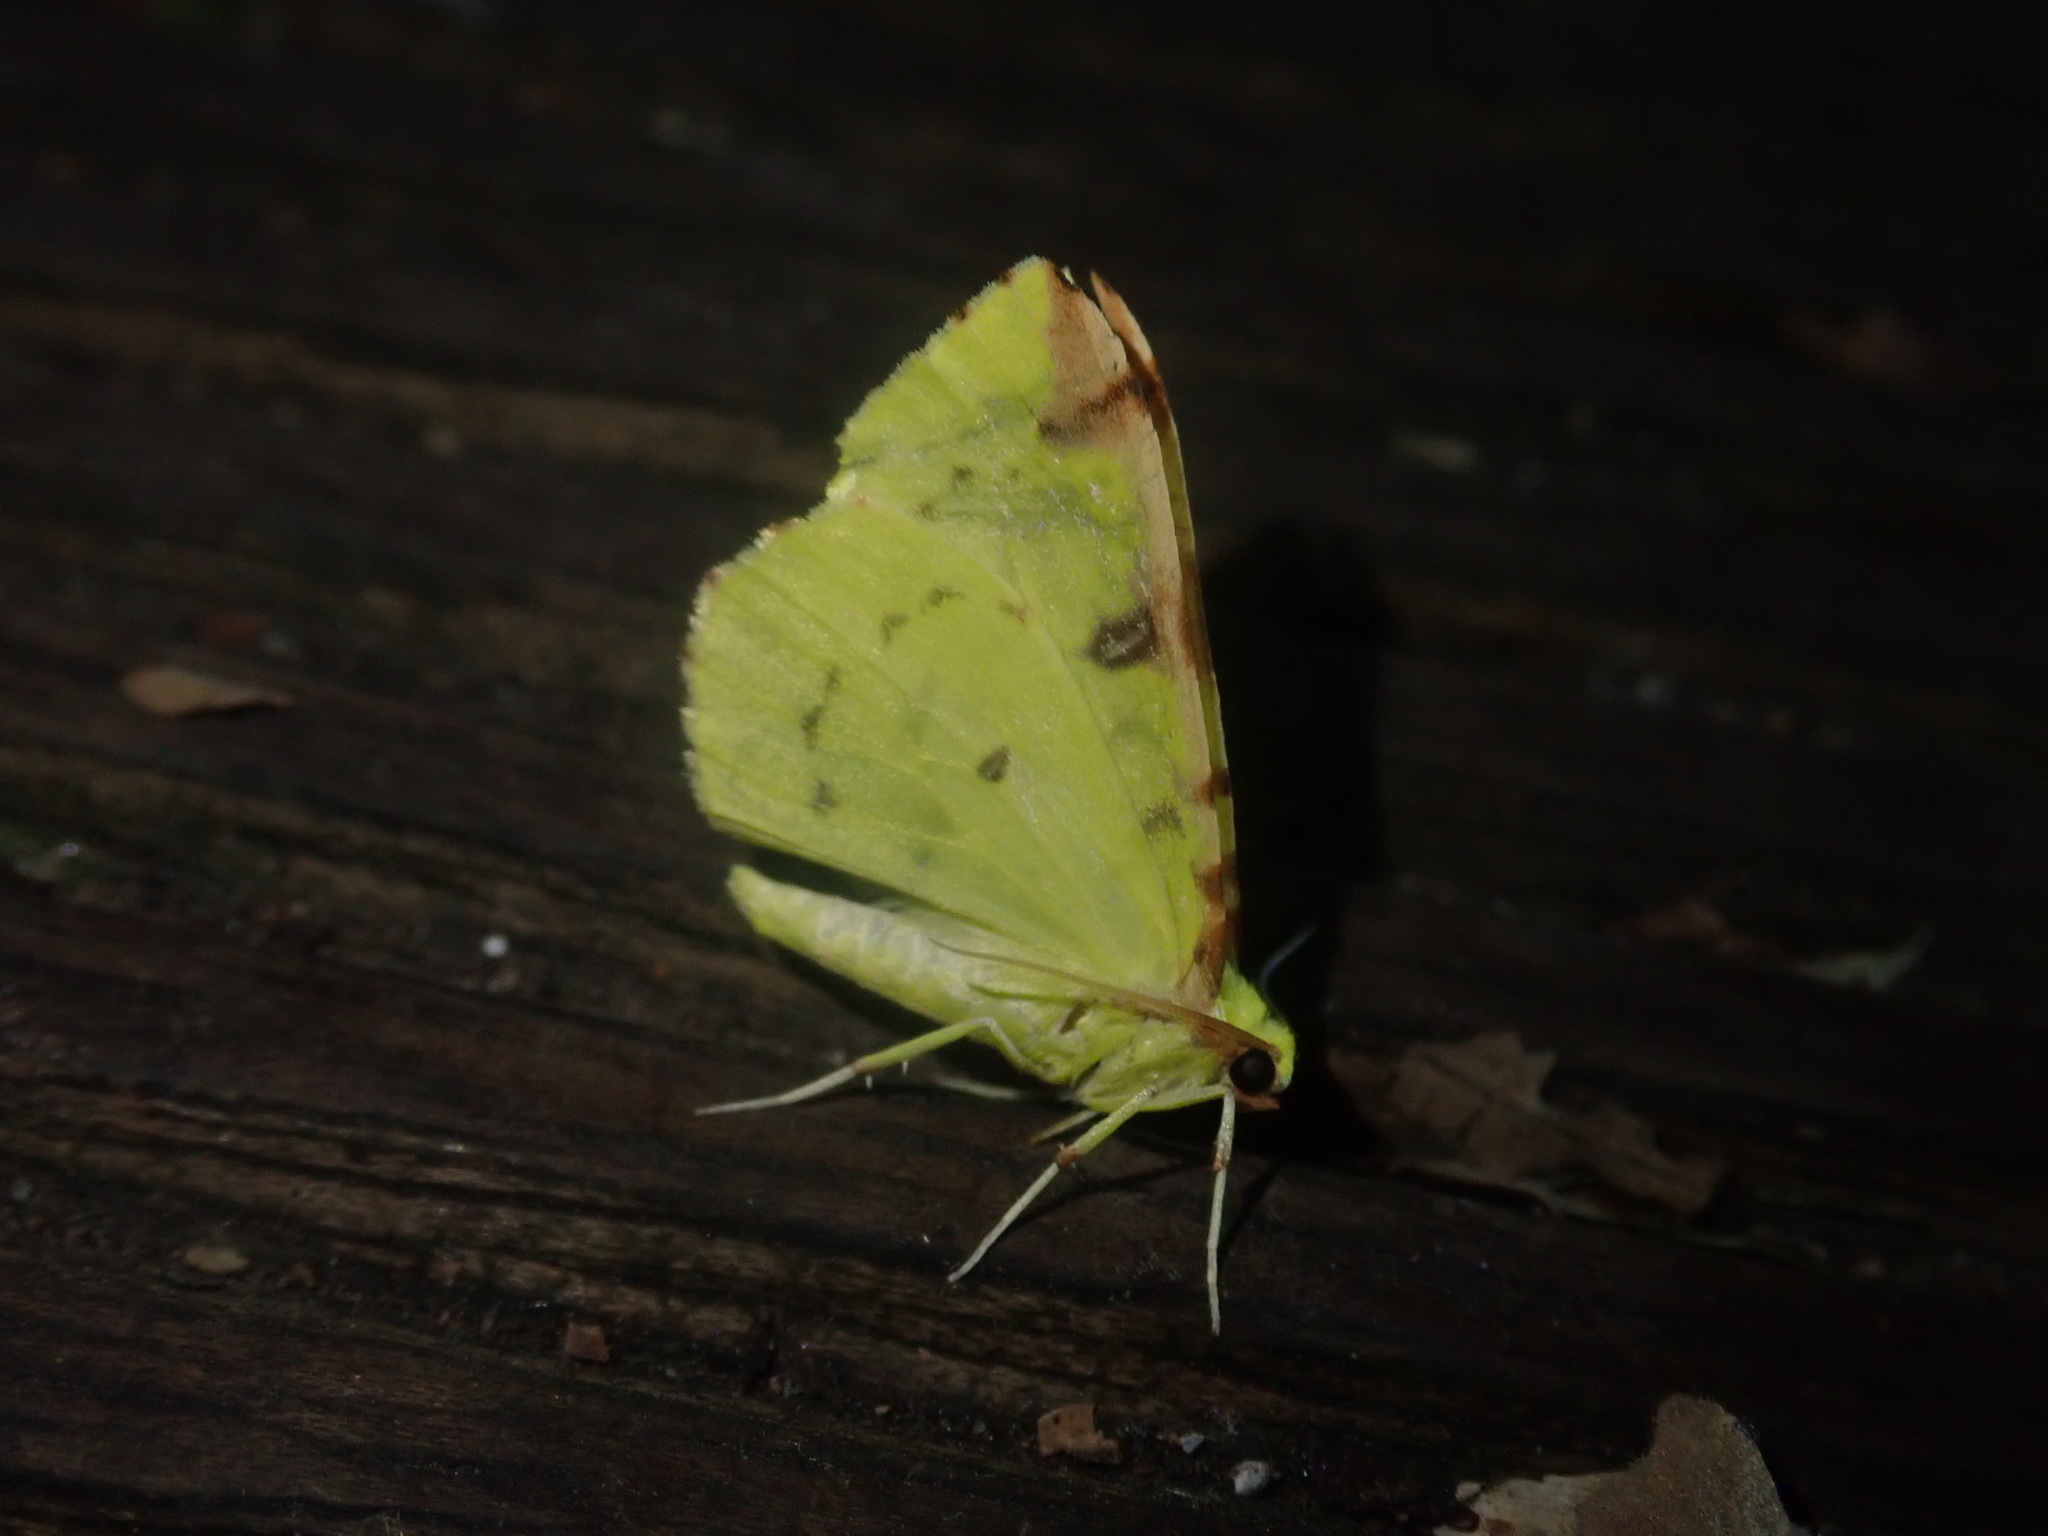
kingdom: Animalia
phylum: Arthropoda
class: Insecta
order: Lepidoptera
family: Geometridae
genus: Opisthograptis
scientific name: Opisthograptis luteolata
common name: Brimstone moth
